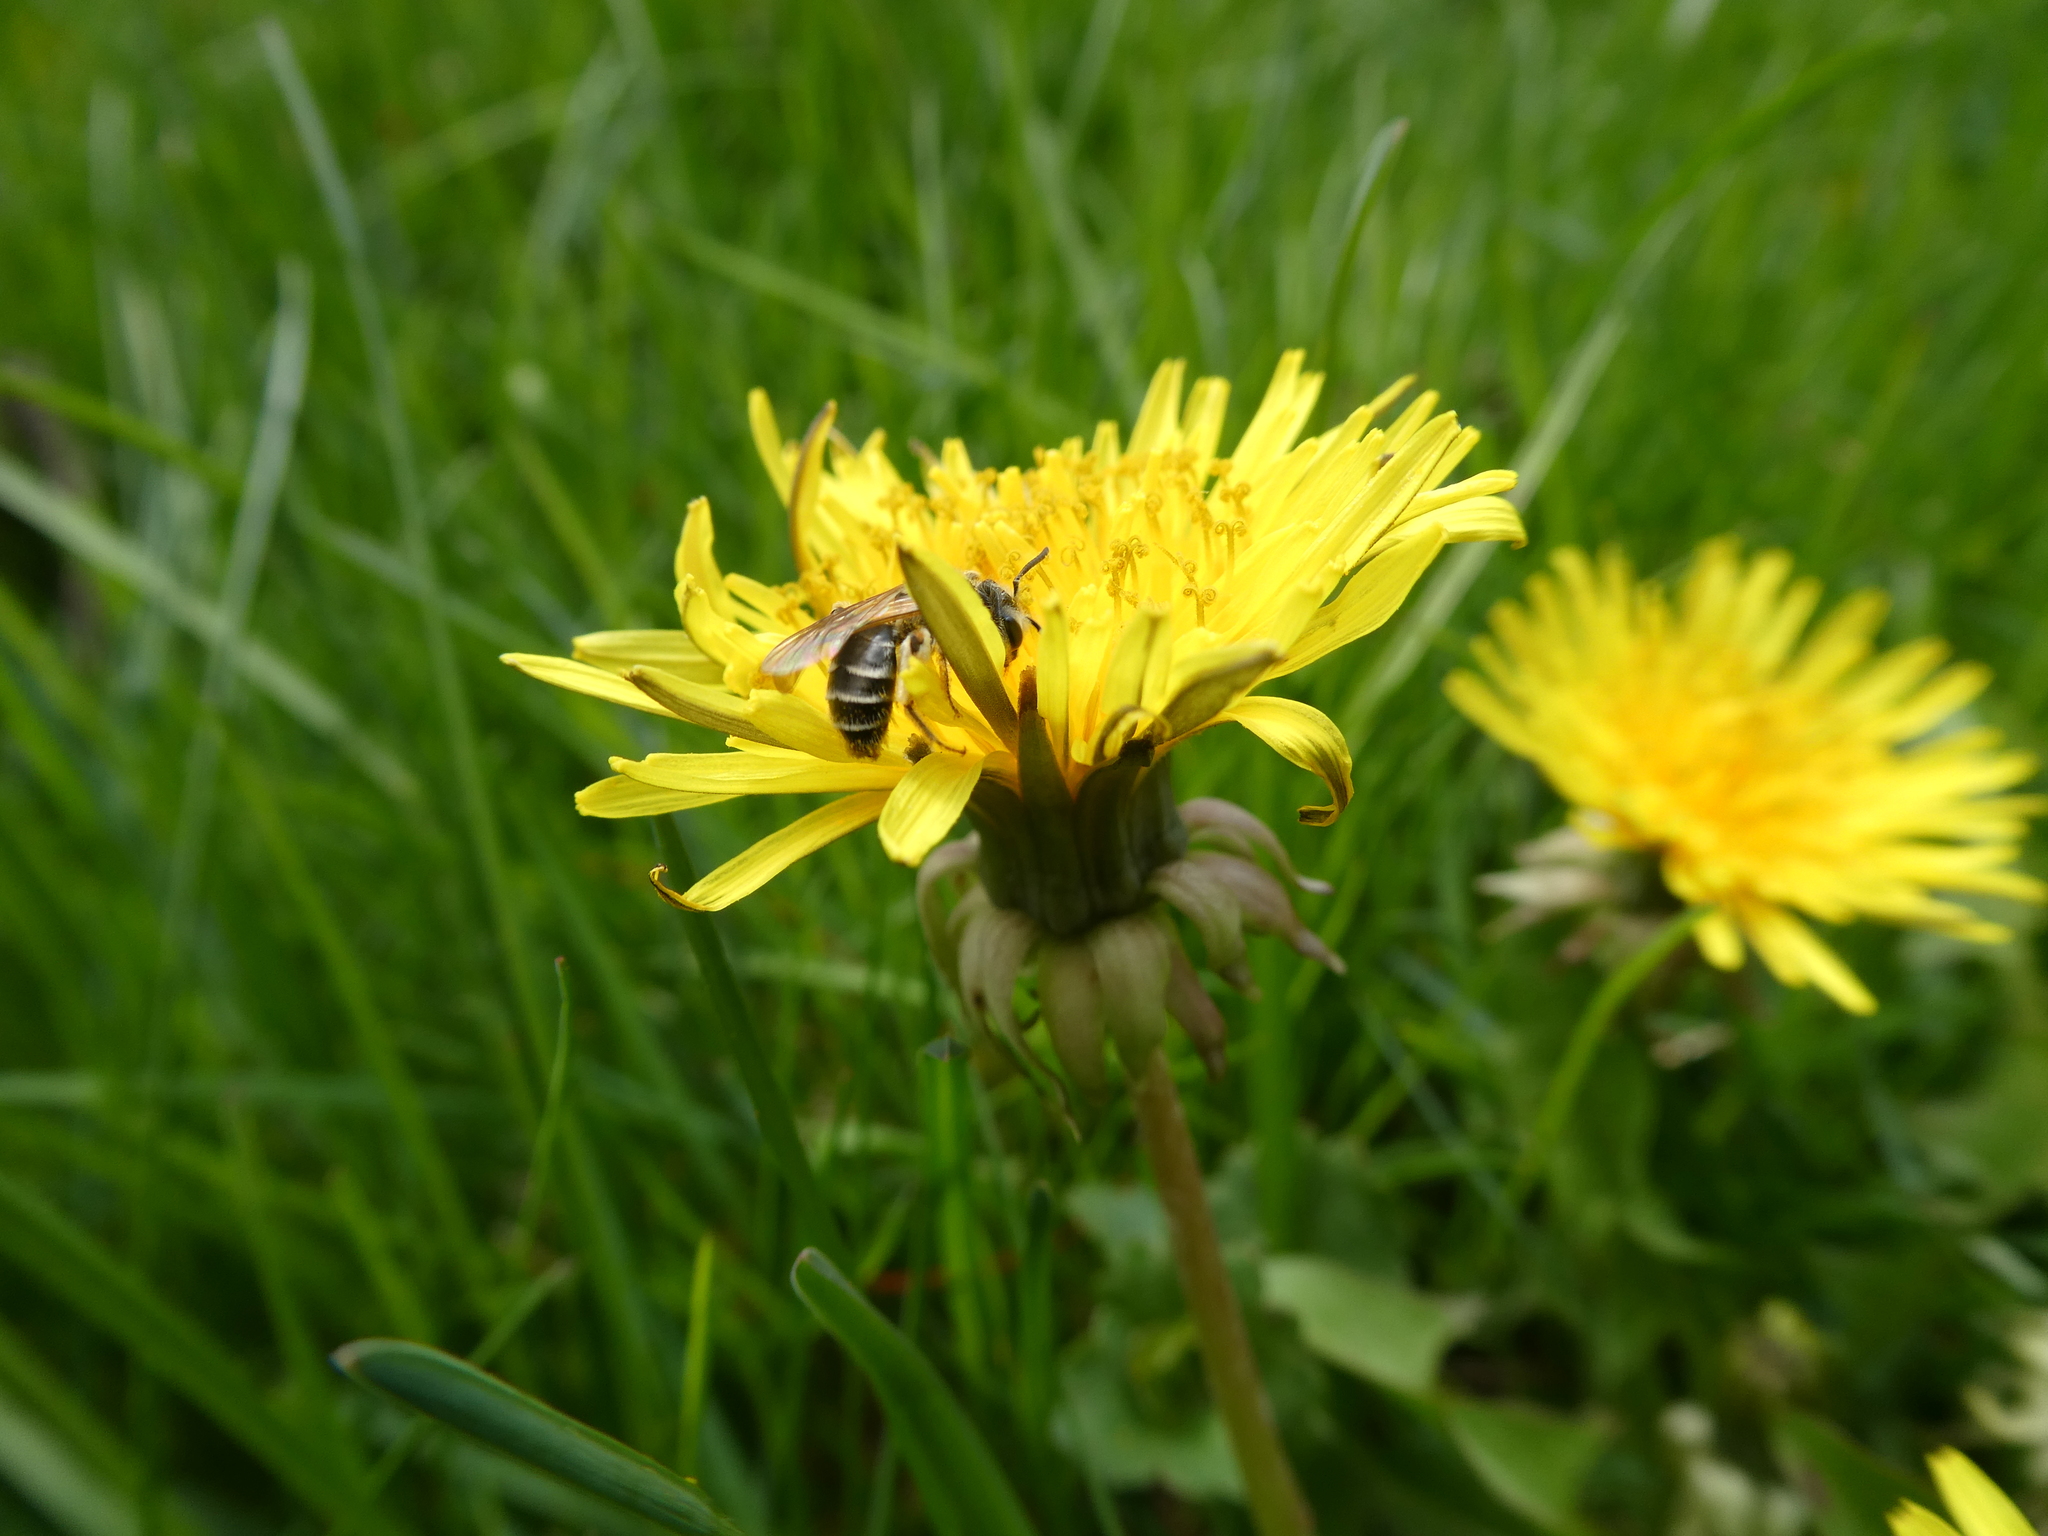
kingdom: Animalia
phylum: Arthropoda
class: Insecta
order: Hymenoptera
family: Andrenidae
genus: Andrena
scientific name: Andrena nasonii
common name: Nason's mining bee
